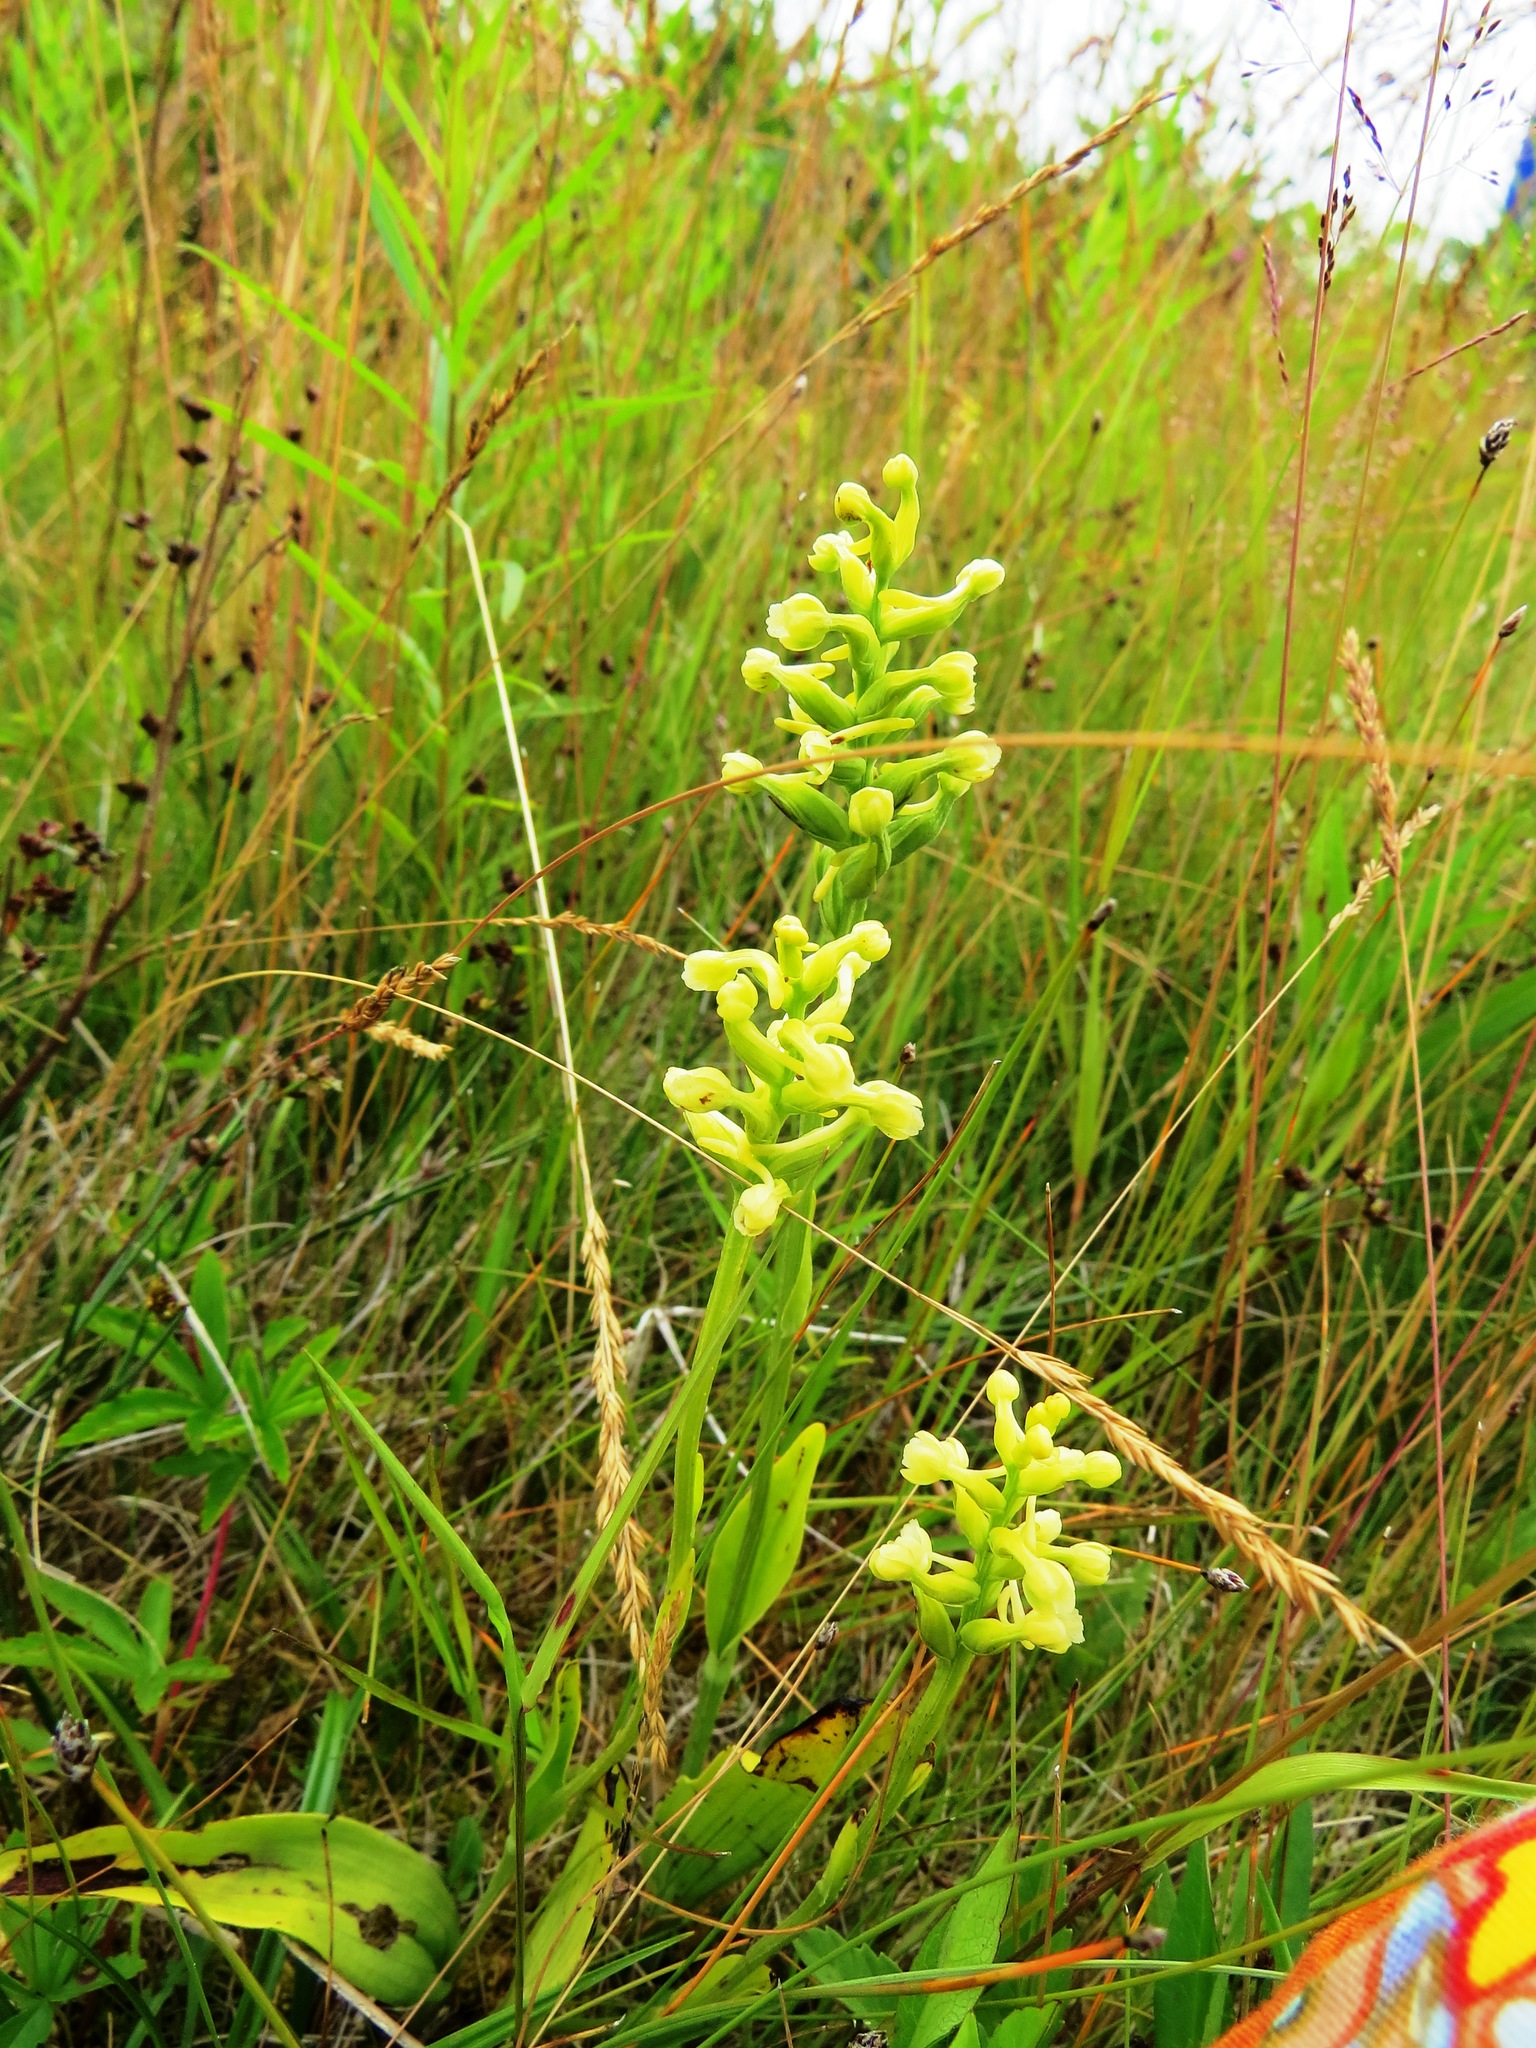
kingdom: Plantae
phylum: Tracheophyta
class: Liliopsida
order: Asparagales
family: Orchidaceae
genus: Platanthera
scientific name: Platanthera clavellata
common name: Club-spur orchid
